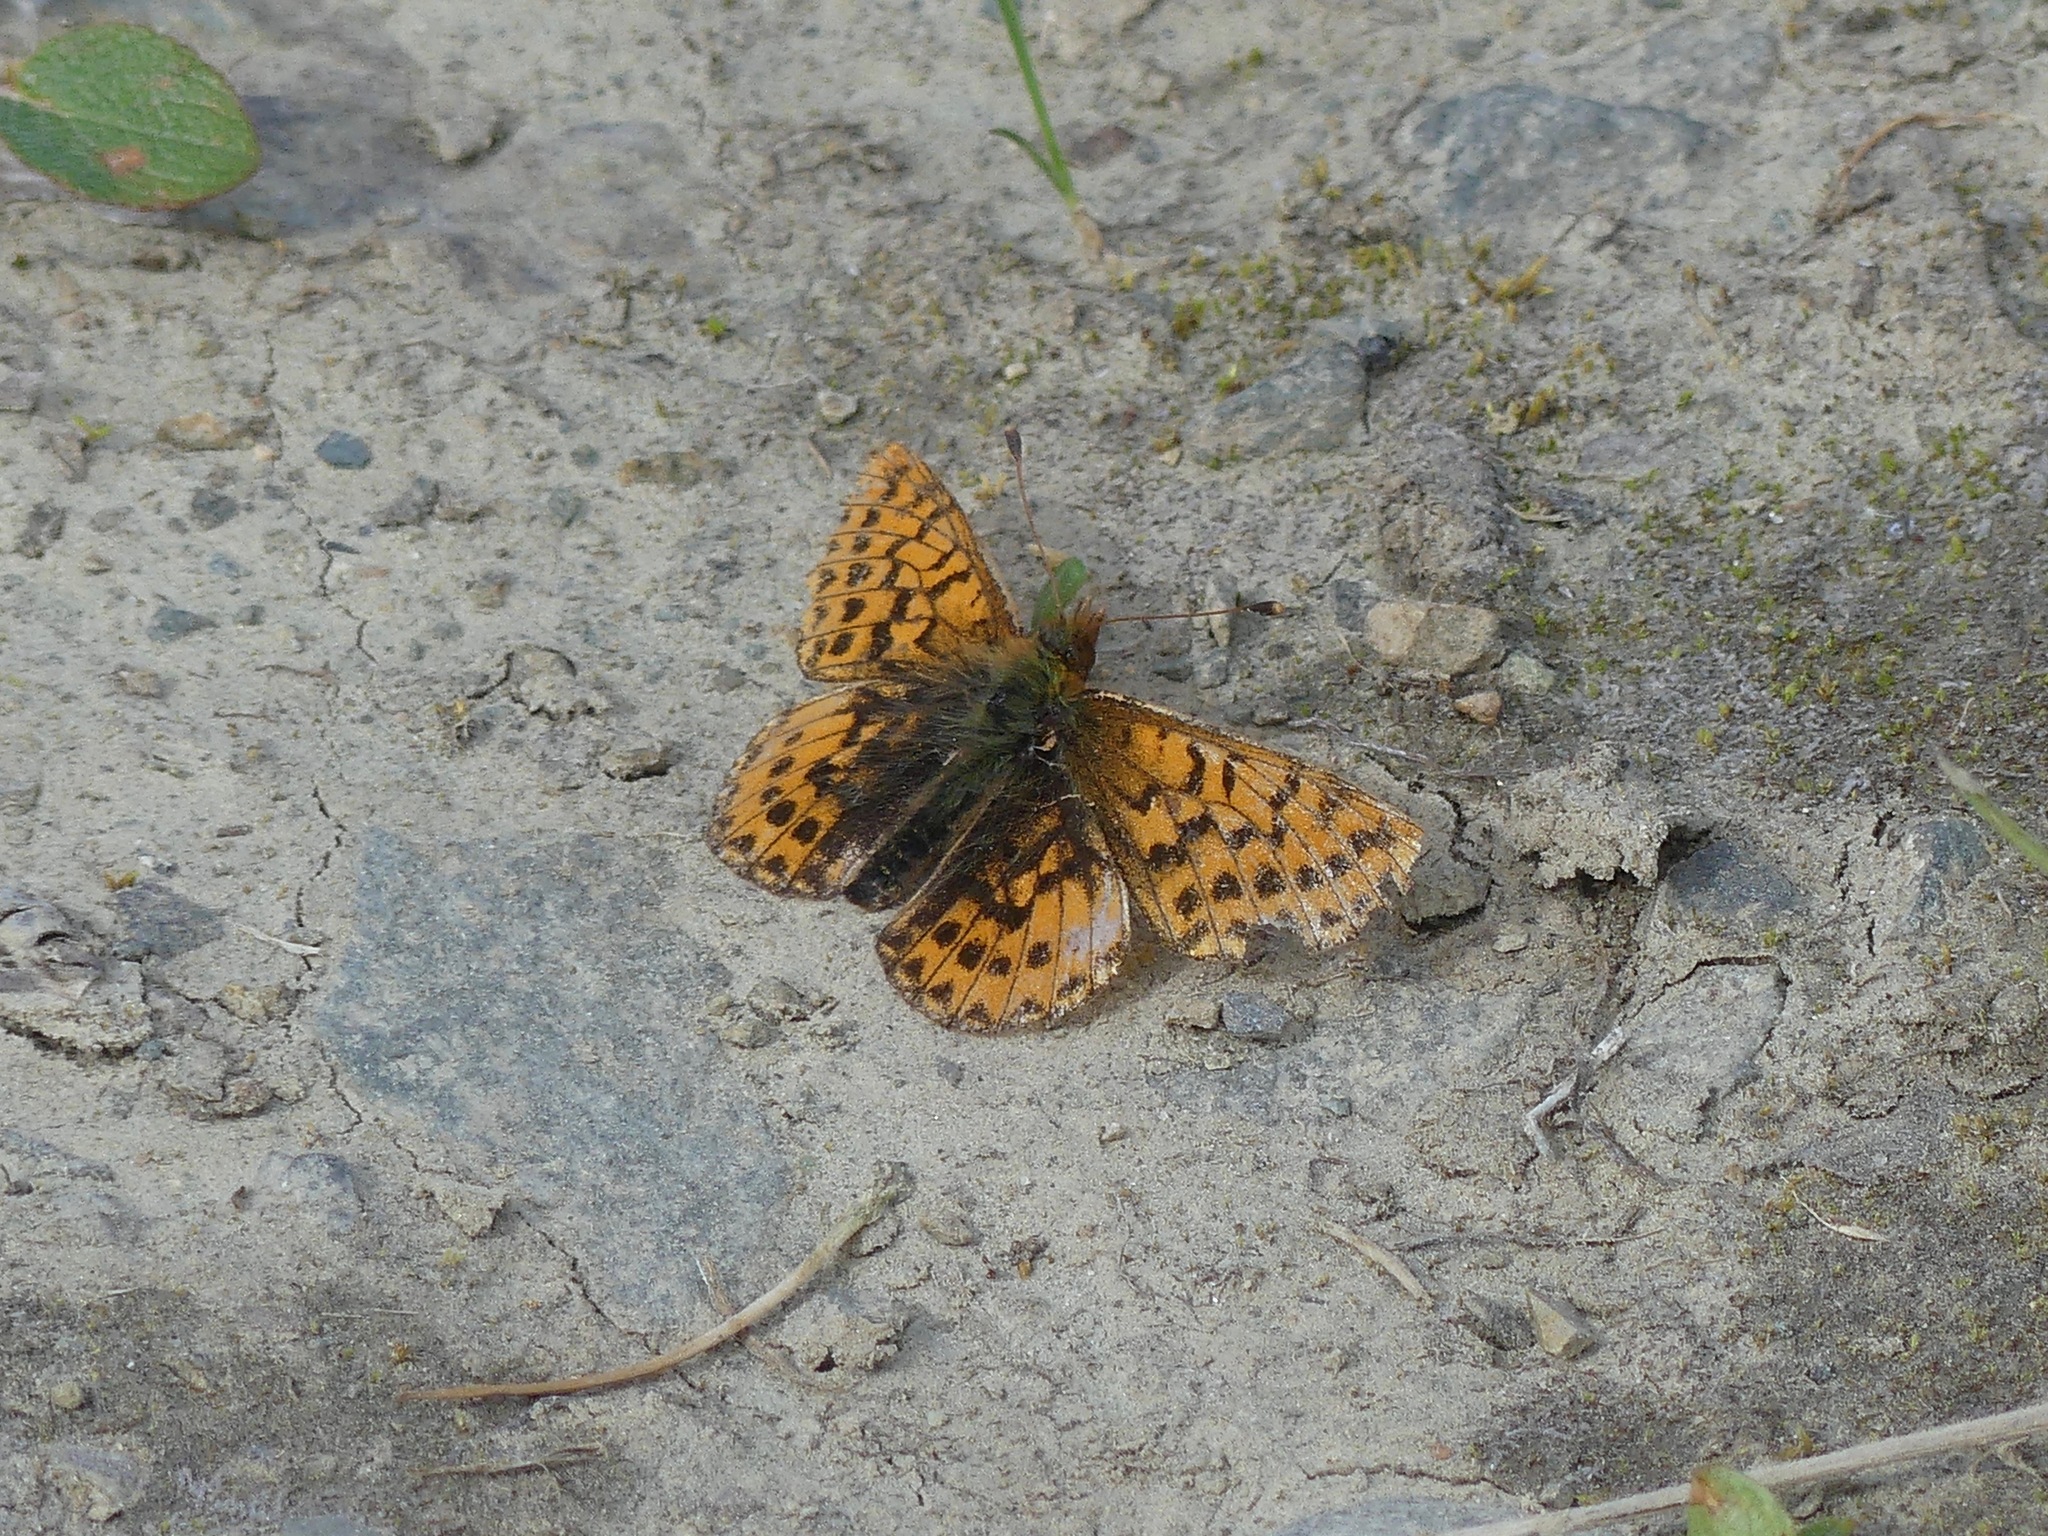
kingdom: Animalia
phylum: Arthropoda
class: Insecta
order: Lepidoptera
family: Nymphalidae
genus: Boloria
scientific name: Boloria chariclea
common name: Arctic fritillary
